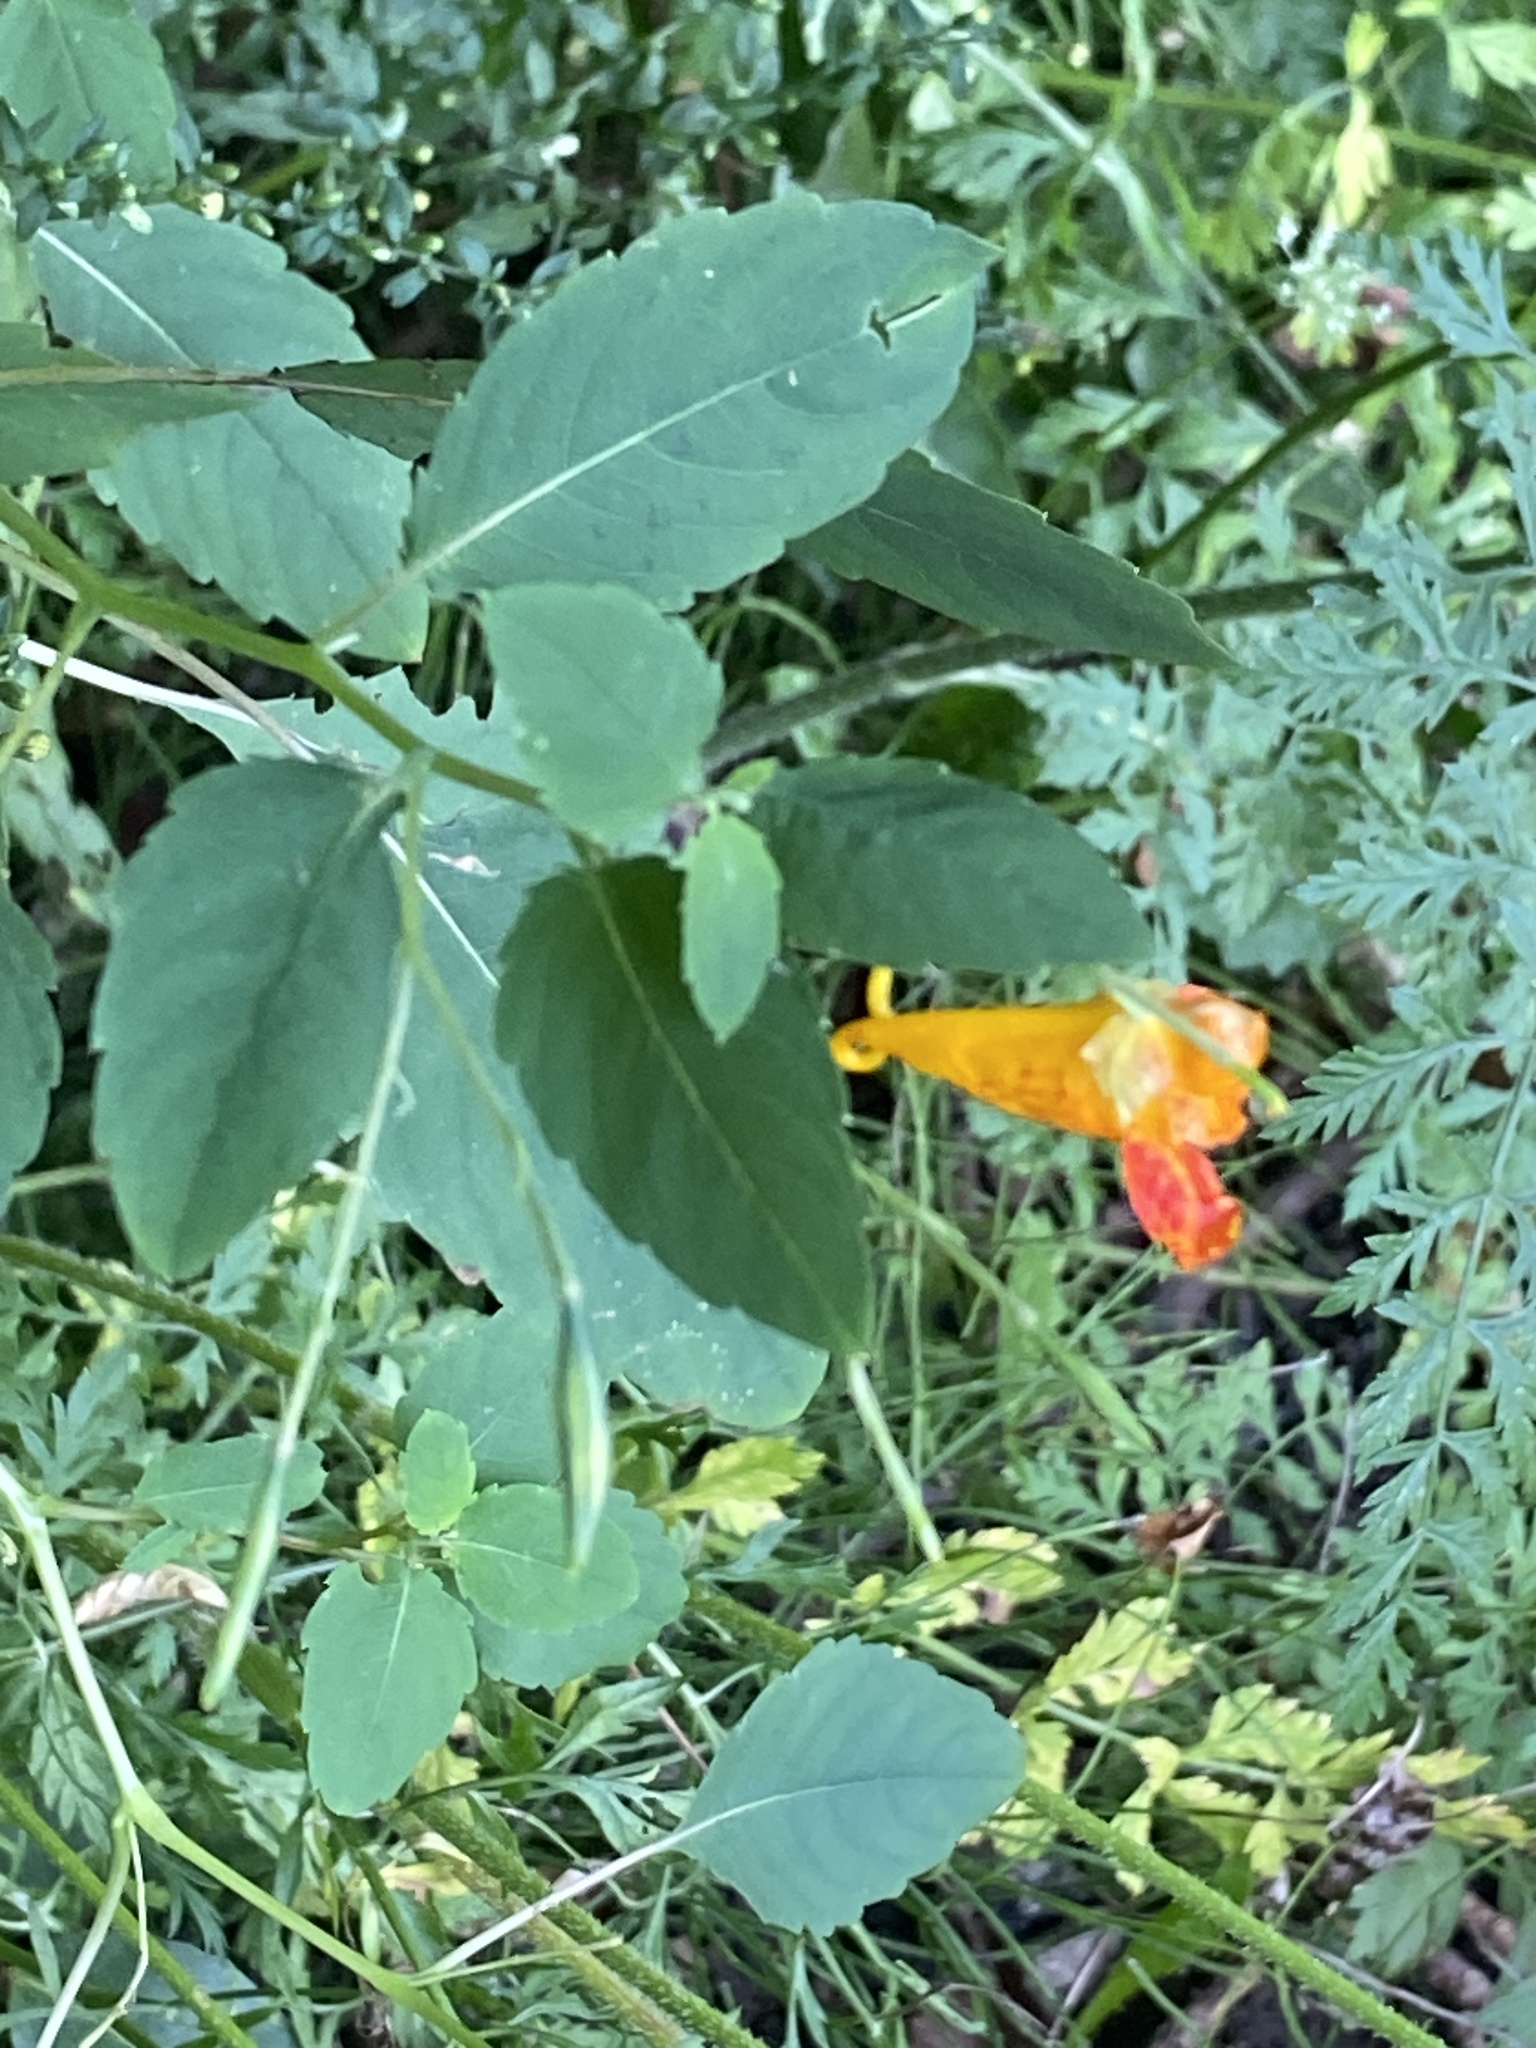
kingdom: Plantae
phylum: Tracheophyta
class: Magnoliopsida
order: Ericales
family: Balsaminaceae
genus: Impatiens
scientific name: Impatiens capensis
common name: Orange balsam
